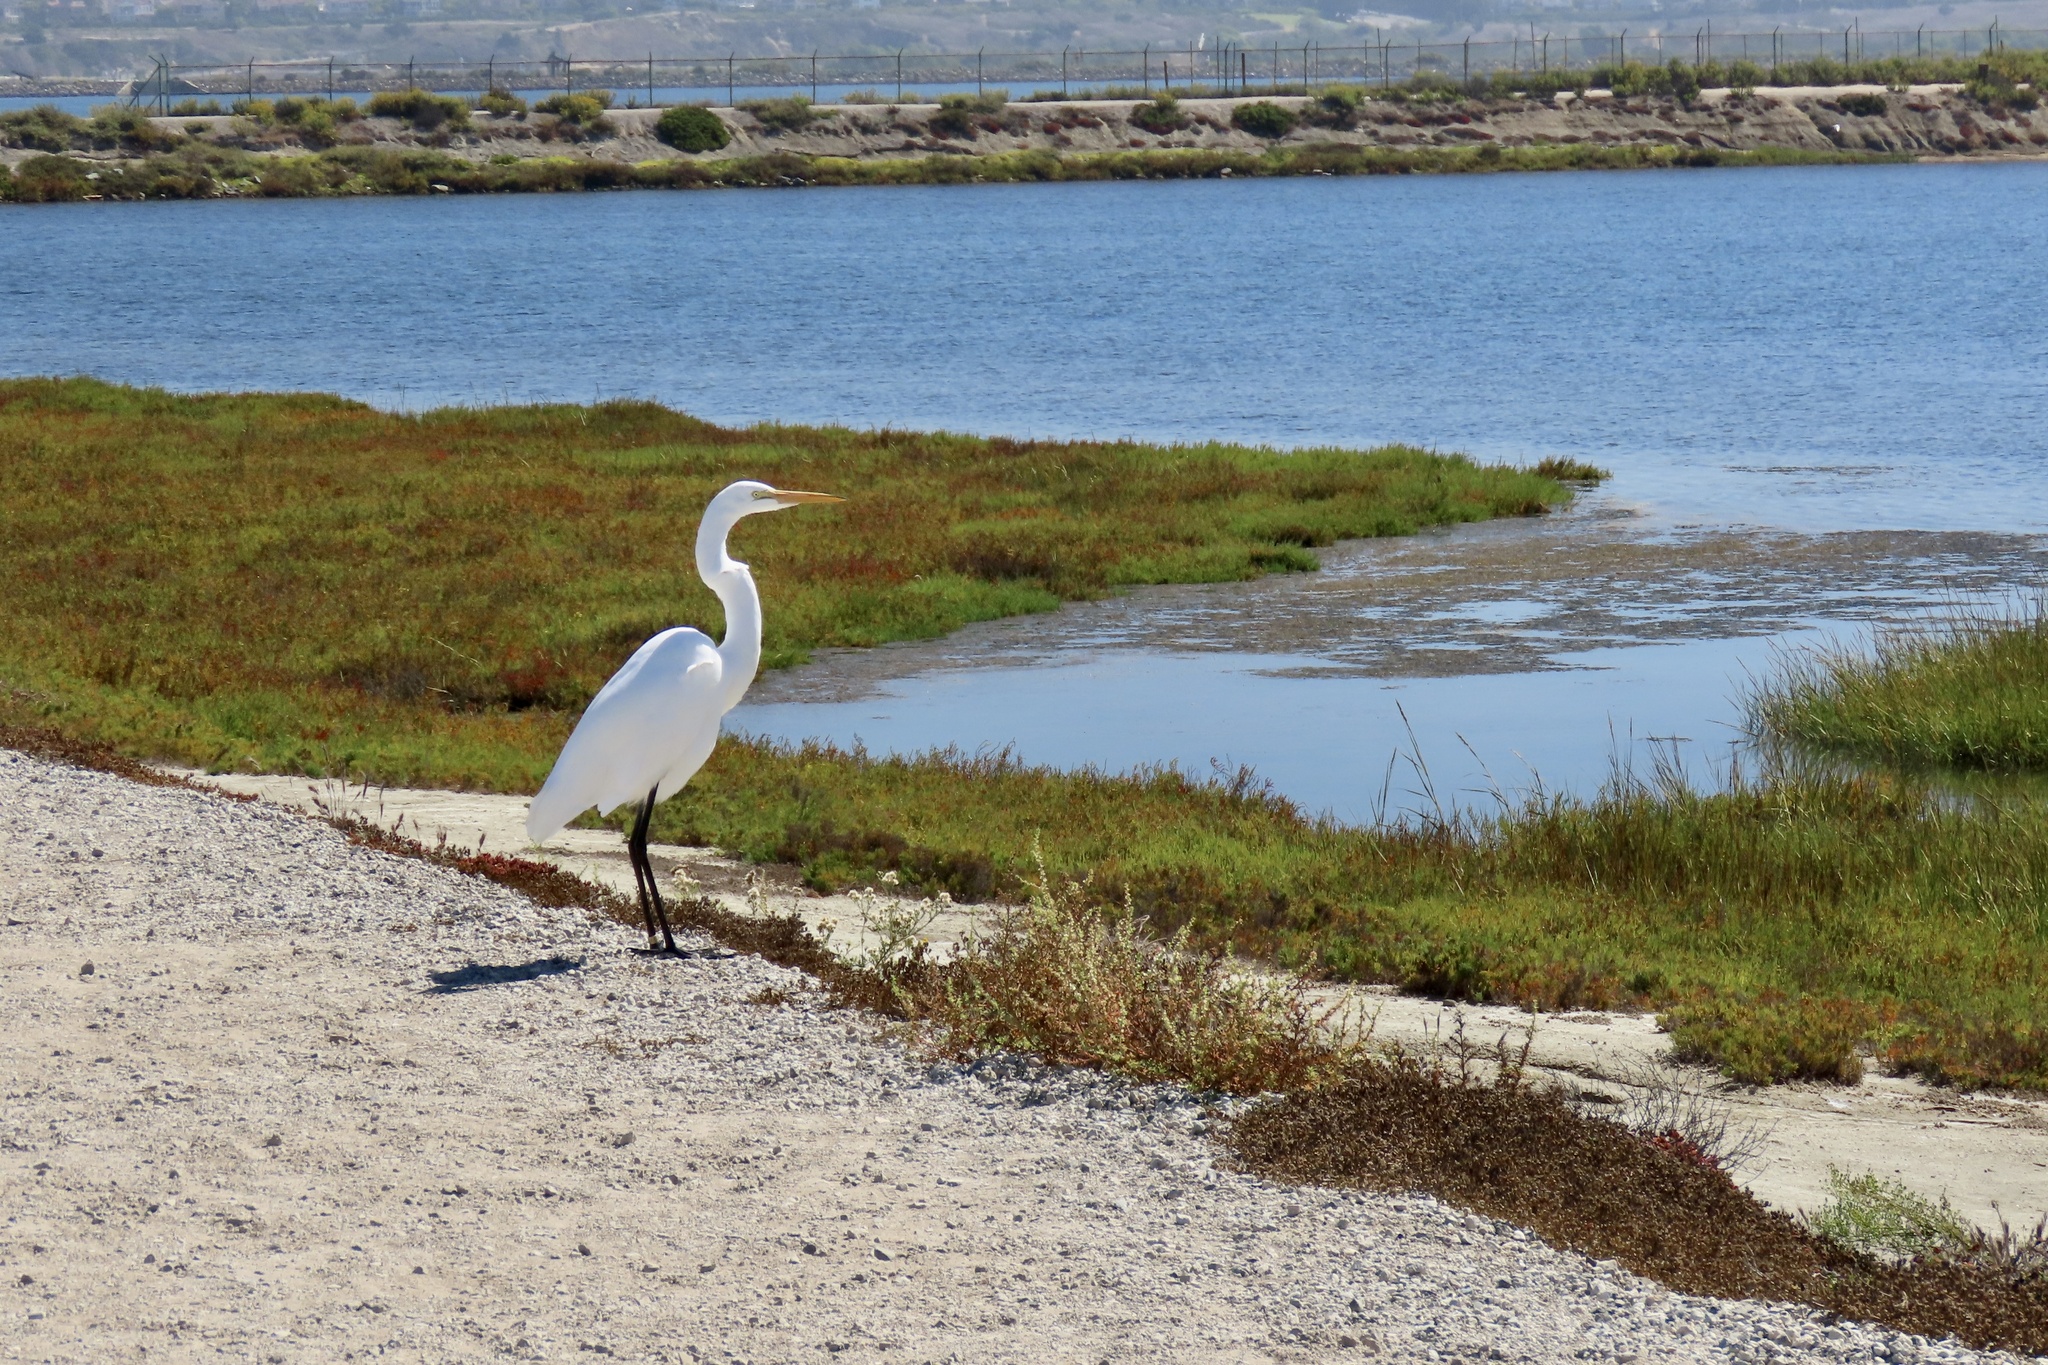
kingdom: Animalia
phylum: Chordata
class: Aves
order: Pelecaniformes
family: Ardeidae
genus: Ardea
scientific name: Ardea alba
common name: Great egret
